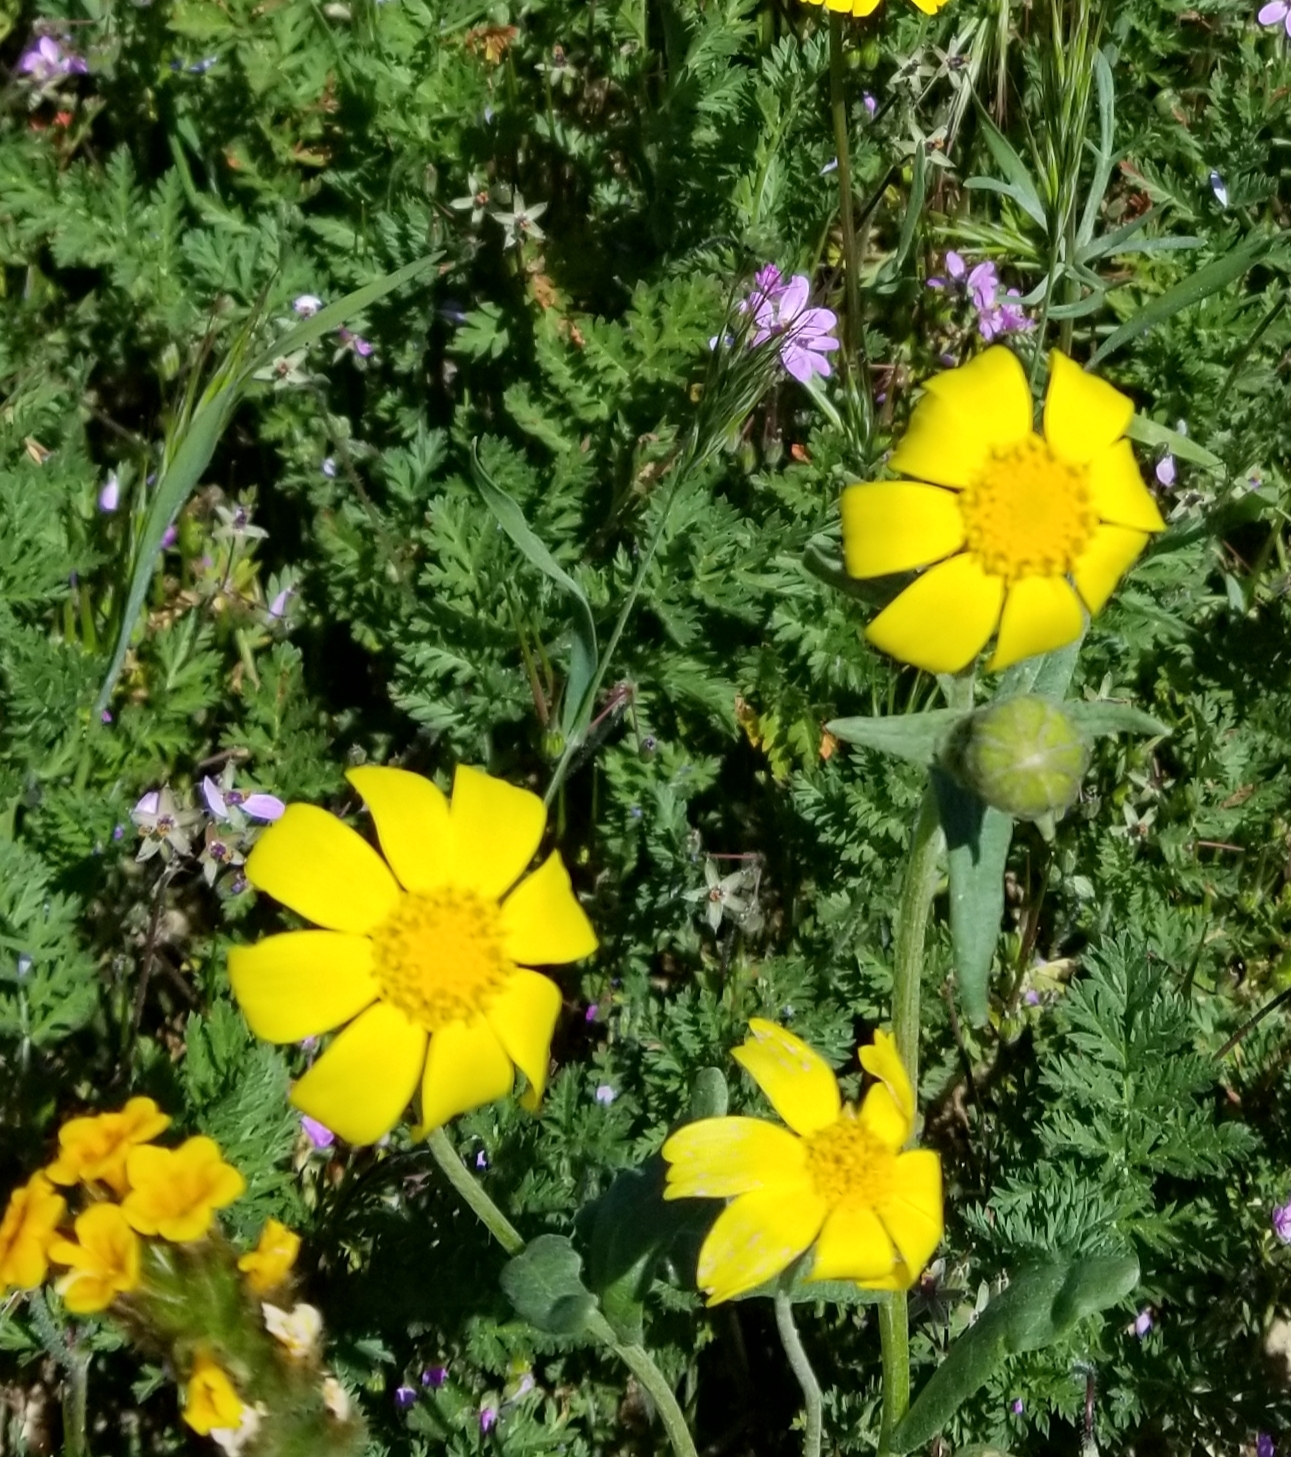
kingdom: Plantae
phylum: Tracheophyta
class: Magnoliopsida
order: Asterales
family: Asteraceae
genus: Monolopia
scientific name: Monolopia lanceolata
